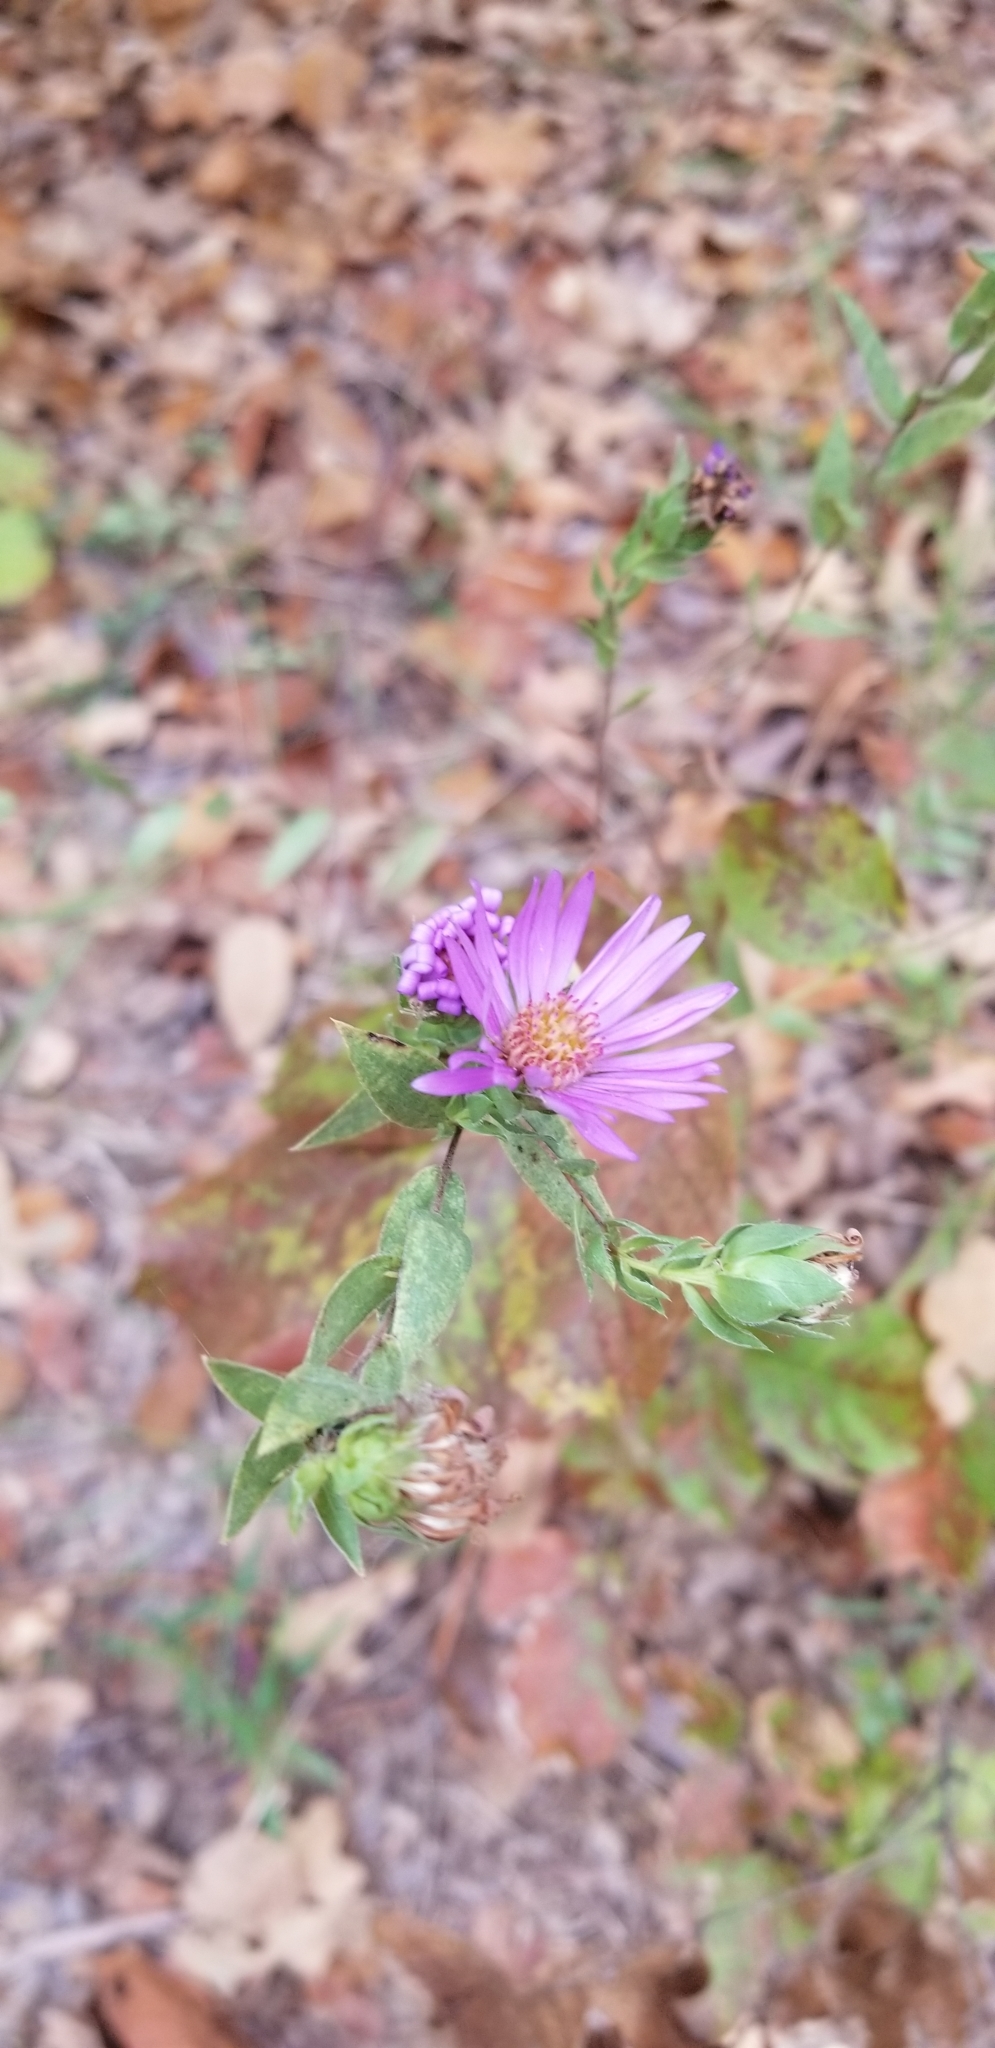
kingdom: Plantae
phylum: Tracheophyta
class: Magnoliopsida
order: Asterales
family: Asteraceae
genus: Symphyotrichum
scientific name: Symphyotrichum pratense
